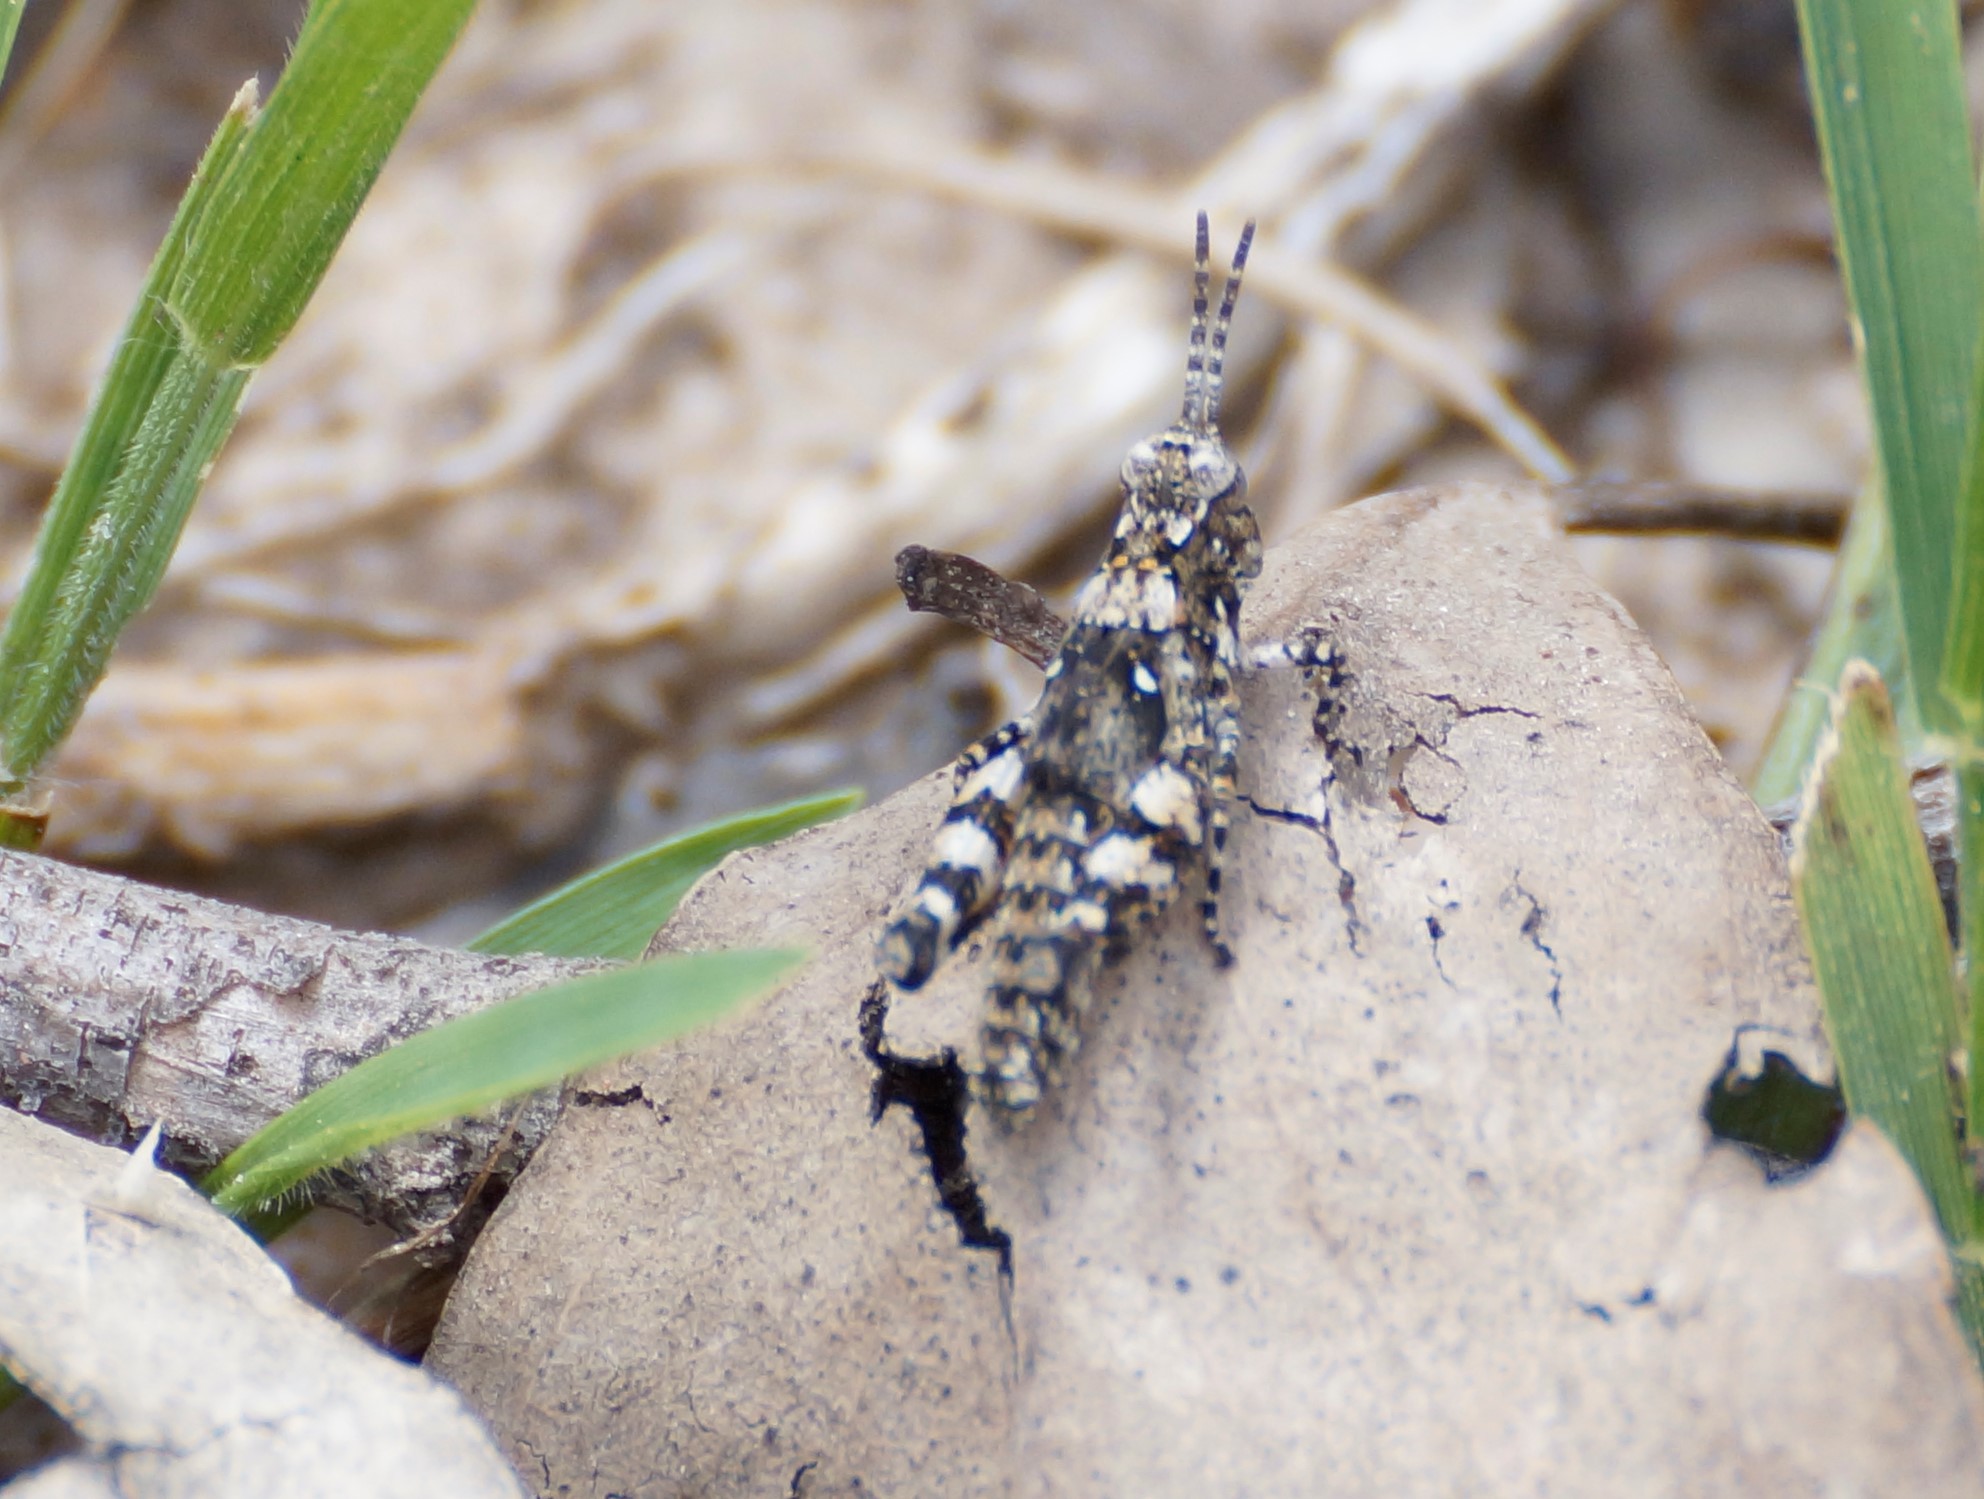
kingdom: Animalia
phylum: Arthropoda
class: Insecta
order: Orthoptera
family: Acrididae
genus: Pycnostictus
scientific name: Pycnostictus seriatus
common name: Common bandwing
